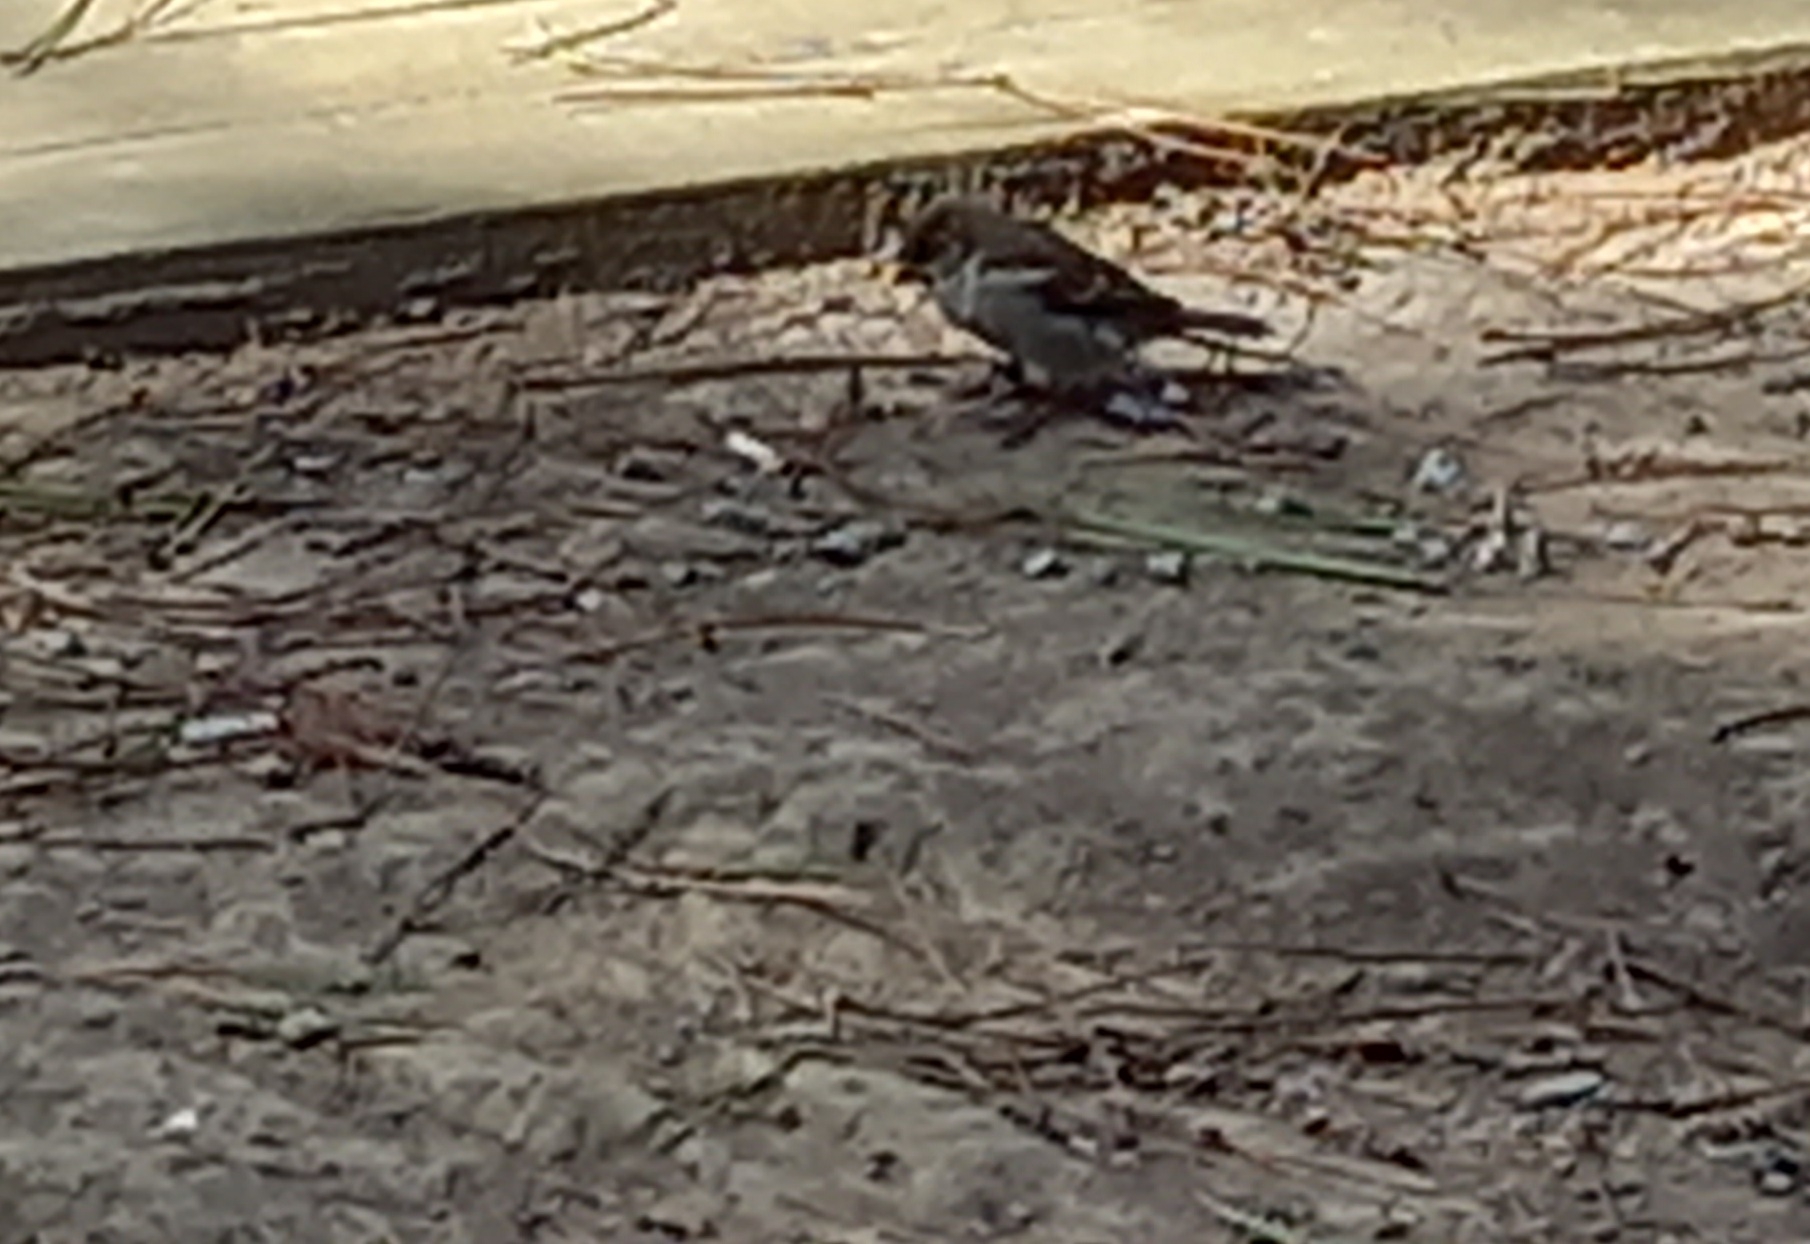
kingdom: Animalia
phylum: Chordata
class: Aves
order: Passeriformes
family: Passeridae
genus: Passer
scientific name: Passer montanus
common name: Eurasian tree sparrow
